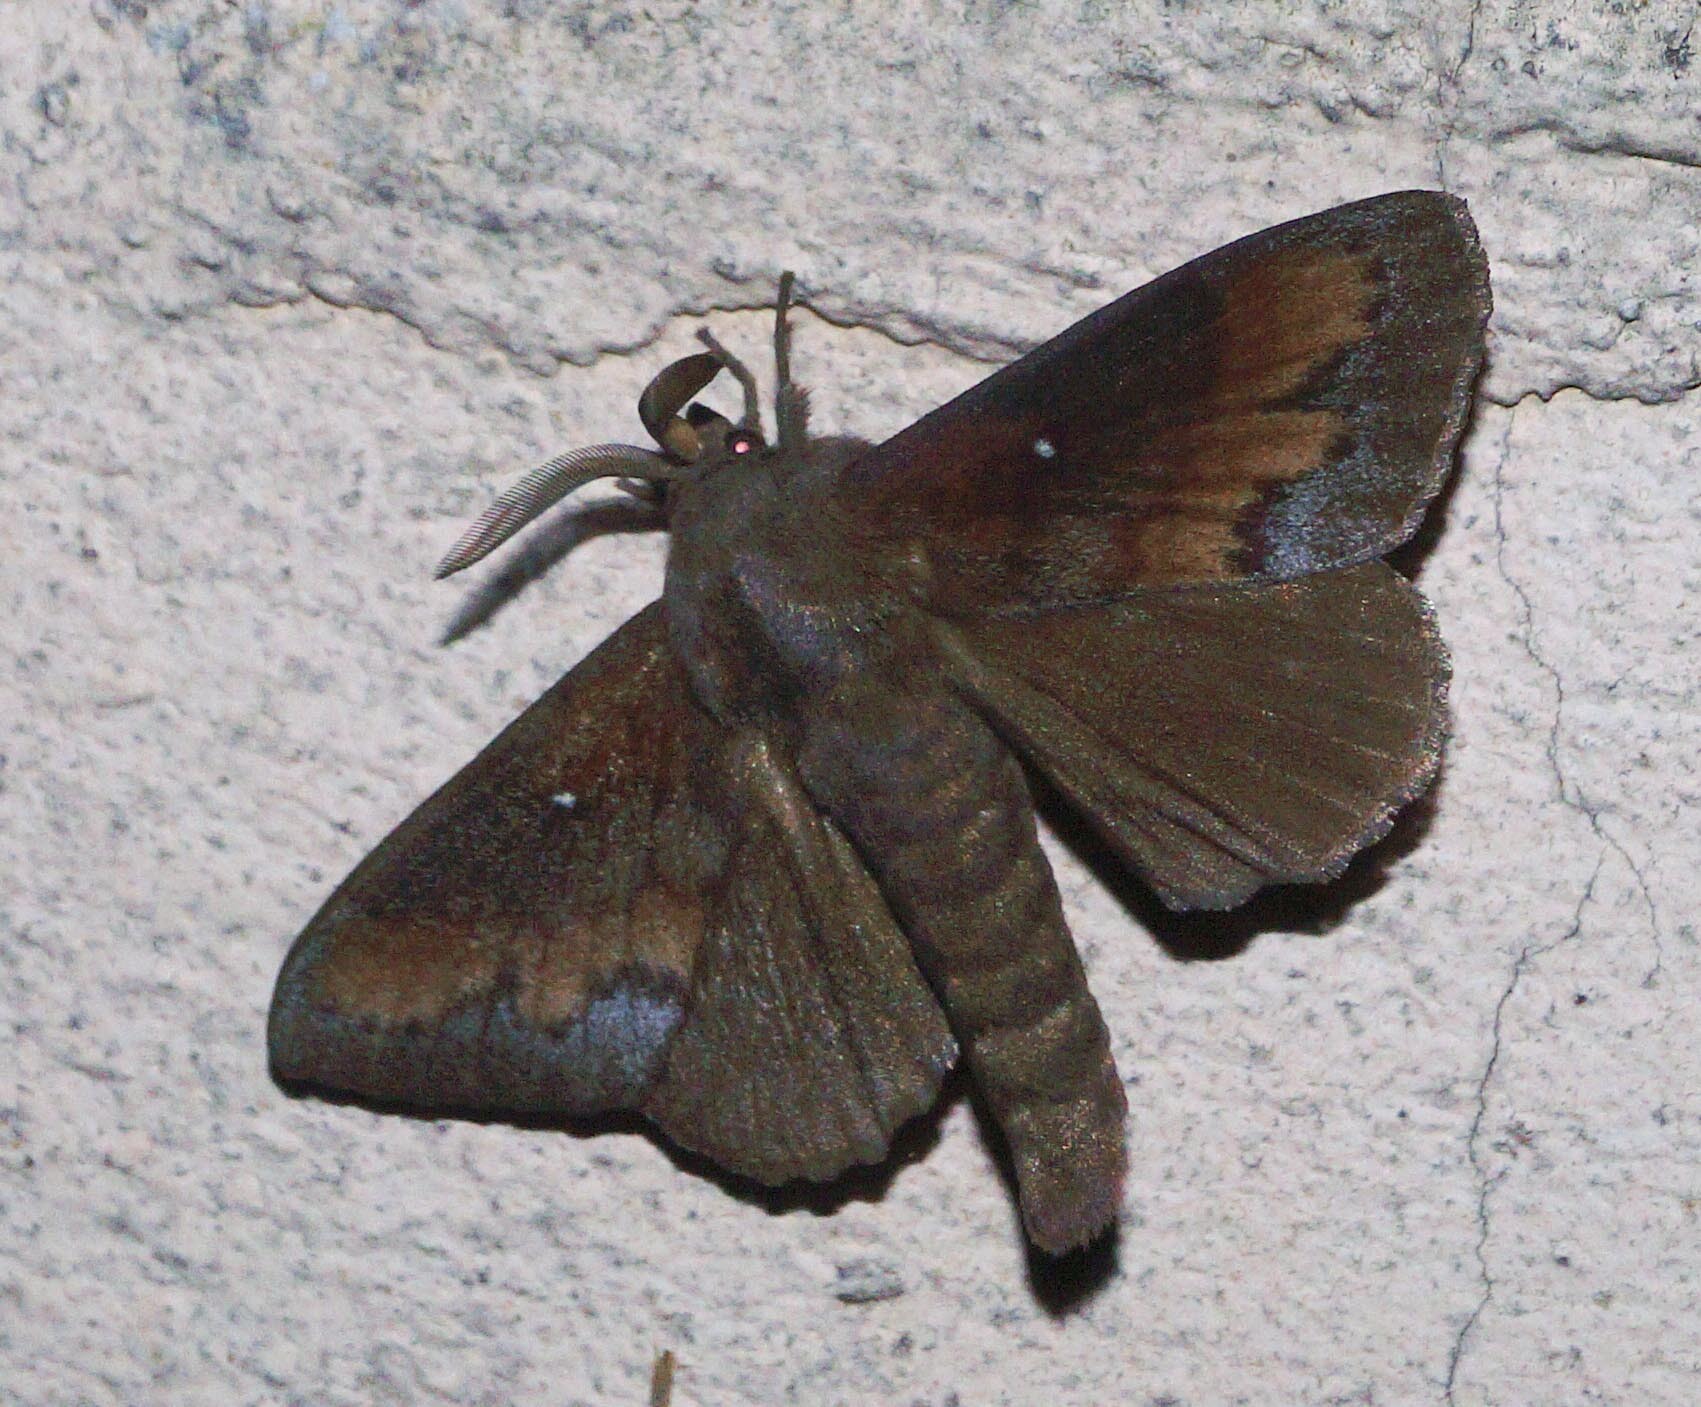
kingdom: Animalia
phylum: Arthropoda
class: Insecta
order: Lepidoptera
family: Lasiocampidae
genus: Dendrolimus
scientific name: Dendrolimus pini
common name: Pine-tree lappet
